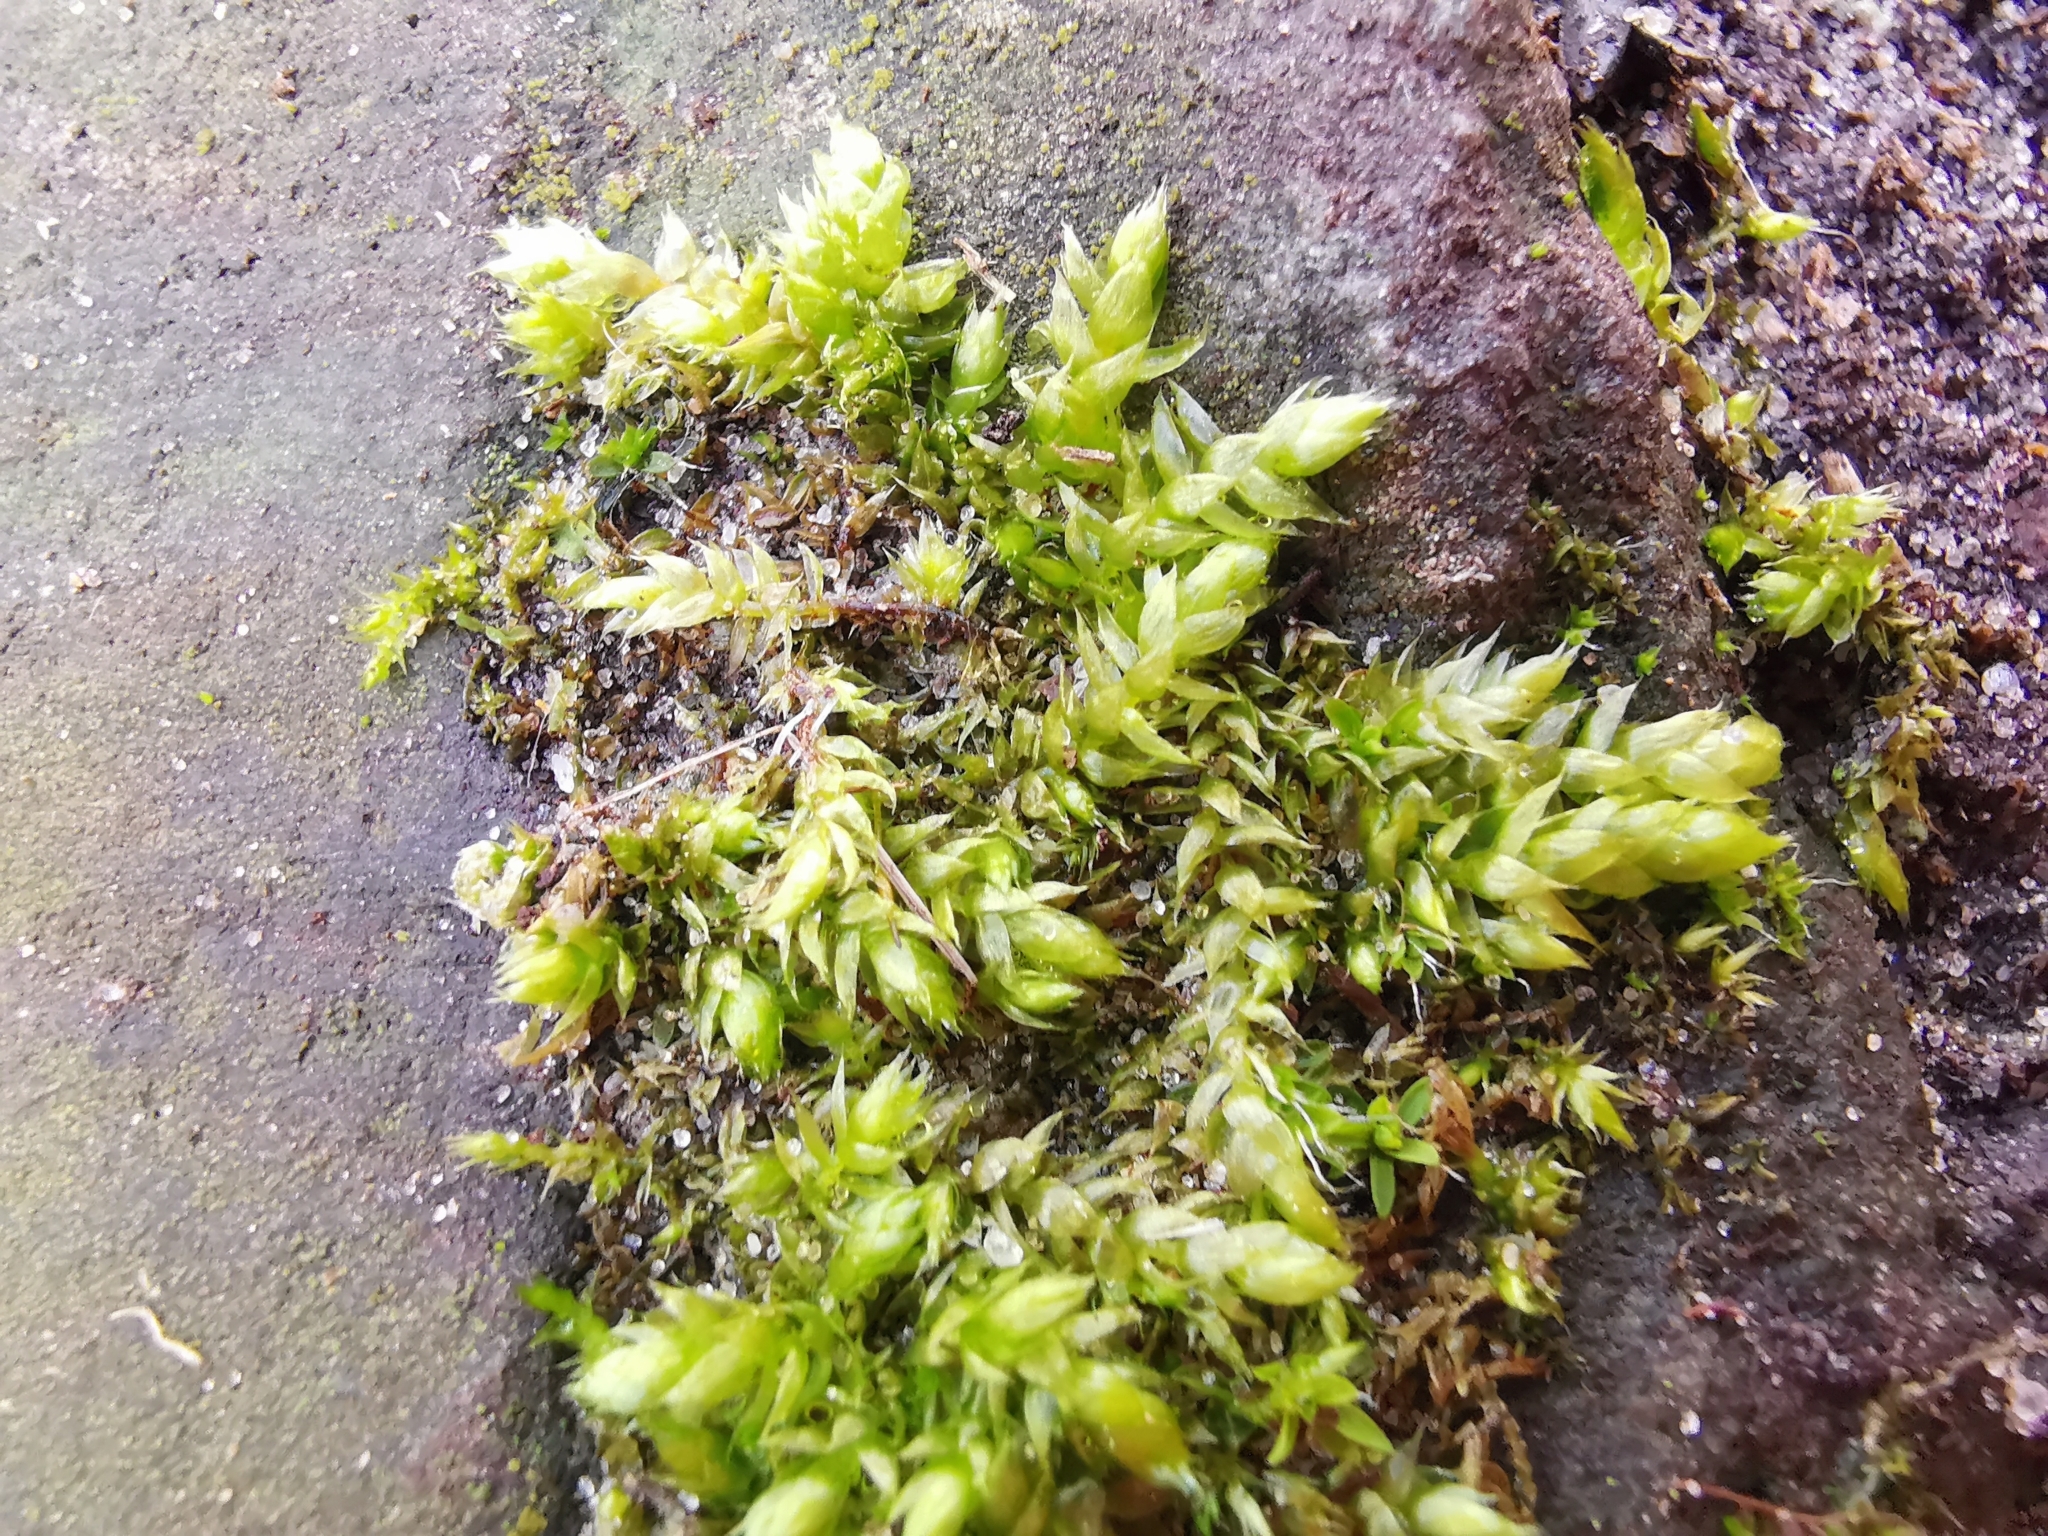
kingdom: Plantae
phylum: Bryophyta
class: Bryopsida
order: Hypnales
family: Brachytheciaceae
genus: Brachythecium
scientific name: Brachythecium rutabulum
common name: Rough-stalked feather-moss
